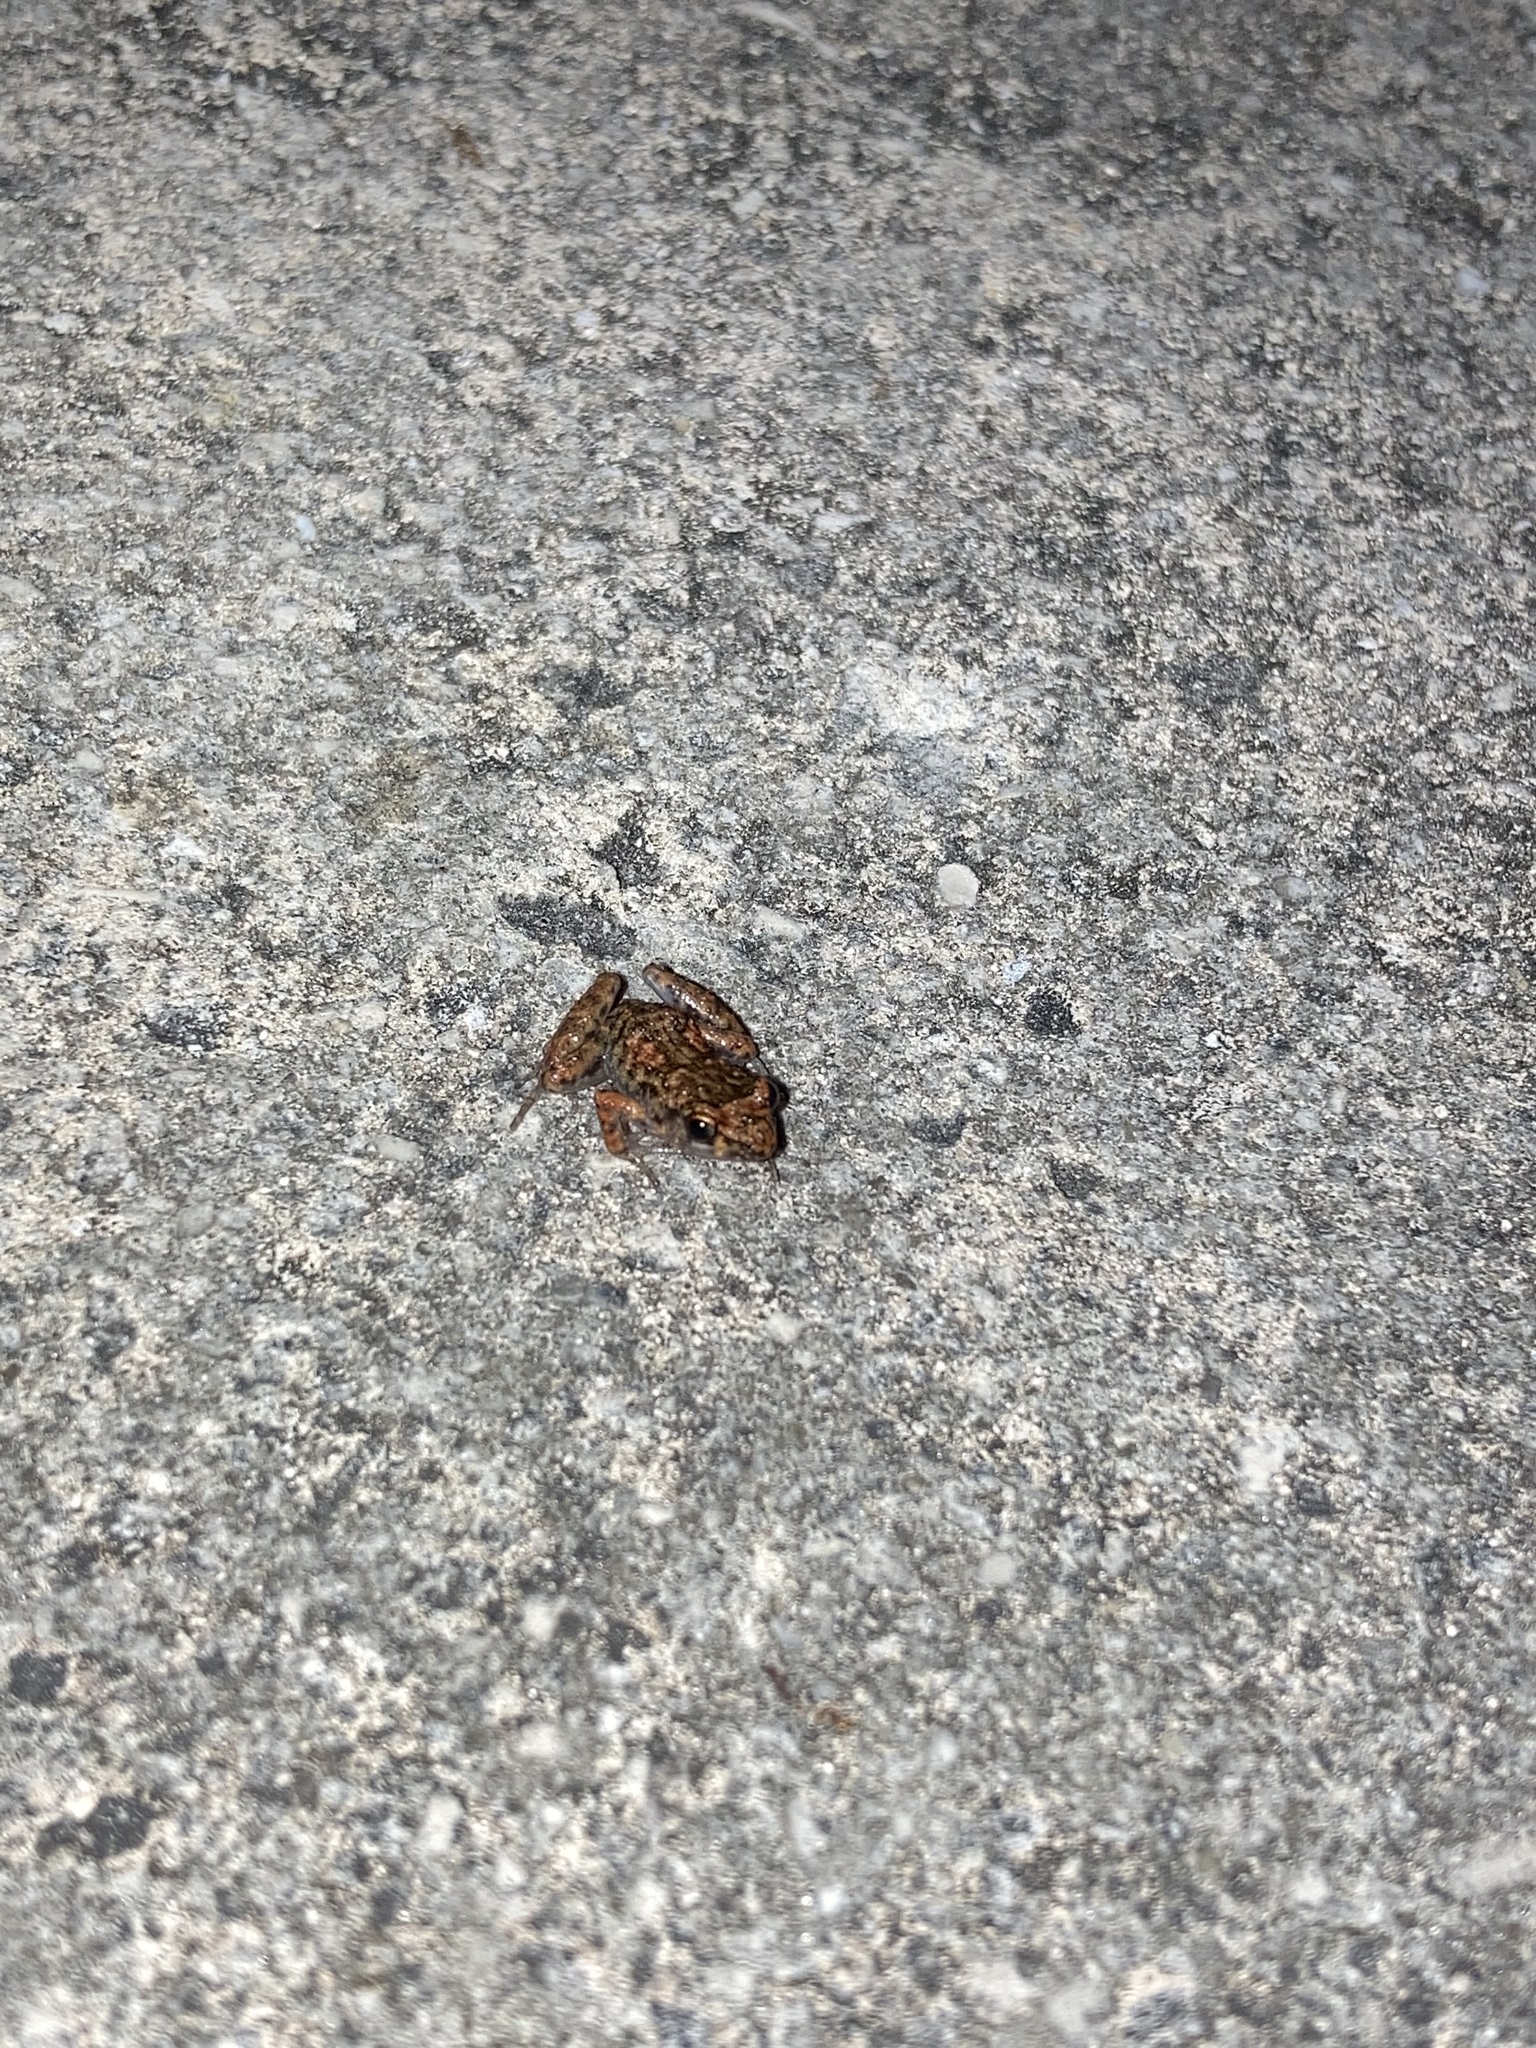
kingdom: Animalia
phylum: Chordata
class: Amphibia
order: Anura
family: Eleutherodactylidae
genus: Eleutherodactylus
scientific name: Eleutherodactylus planirostris
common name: Greenhouse frog
